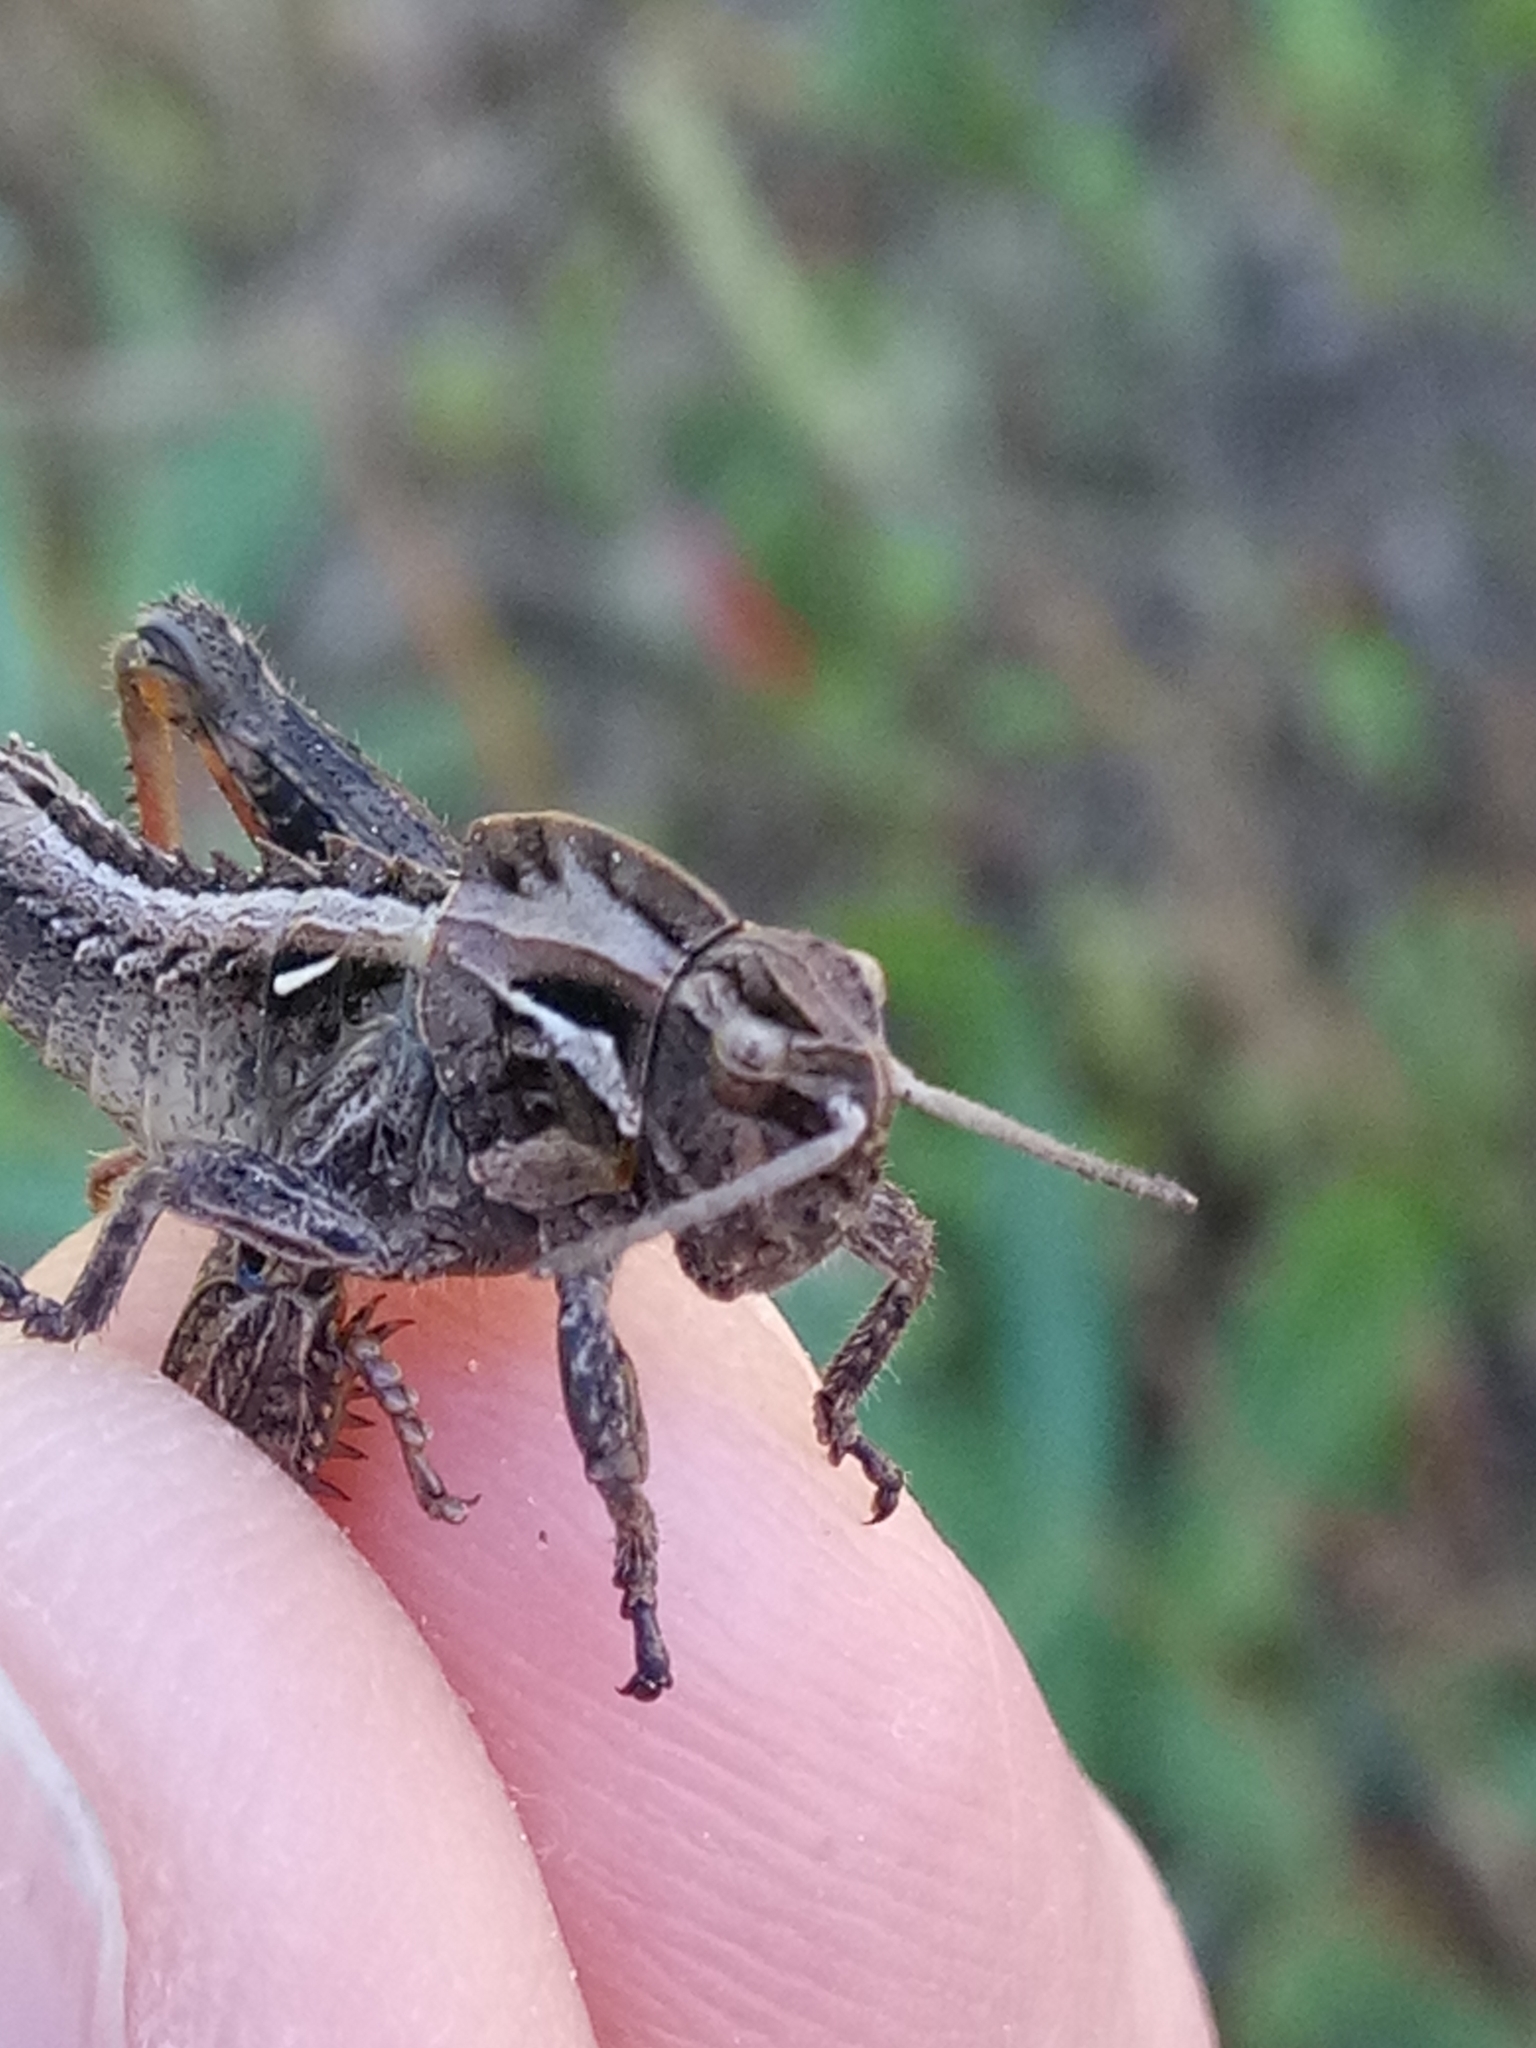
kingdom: Animalia
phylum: Arthropoda
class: Insecta
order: Orthoptera
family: Pamphagidae
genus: Ocneridia
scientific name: Ocneridia nigropunctata
